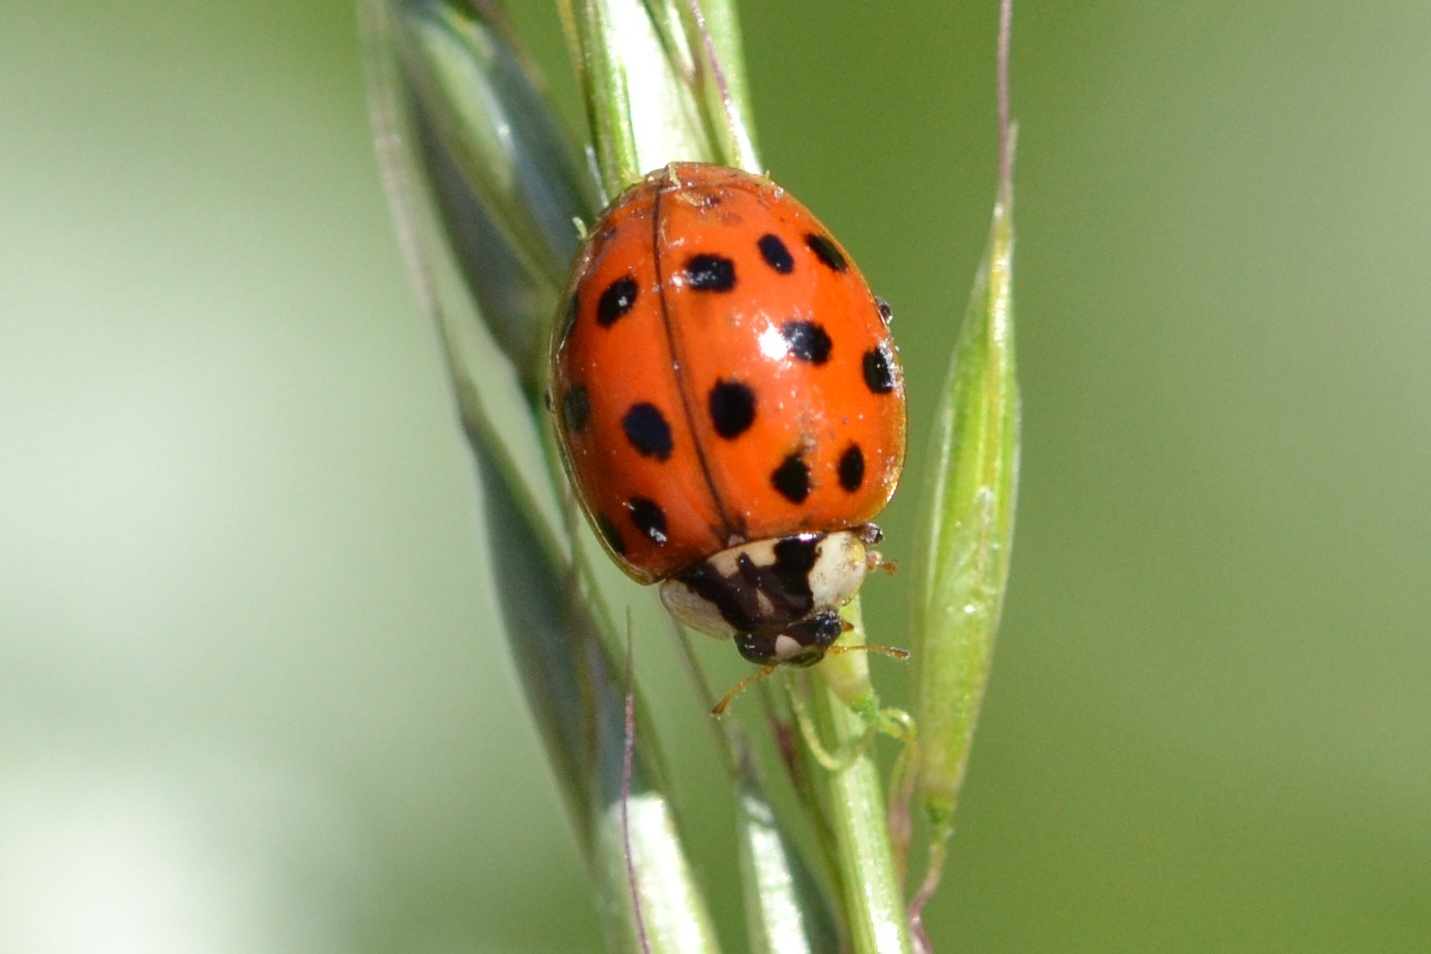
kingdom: Animalia
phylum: Arthropoda
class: Insecta
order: Coleoptera
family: Coccinellidae
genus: Harmonia
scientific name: Harmonia axyridis
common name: Harlequin ladybird
